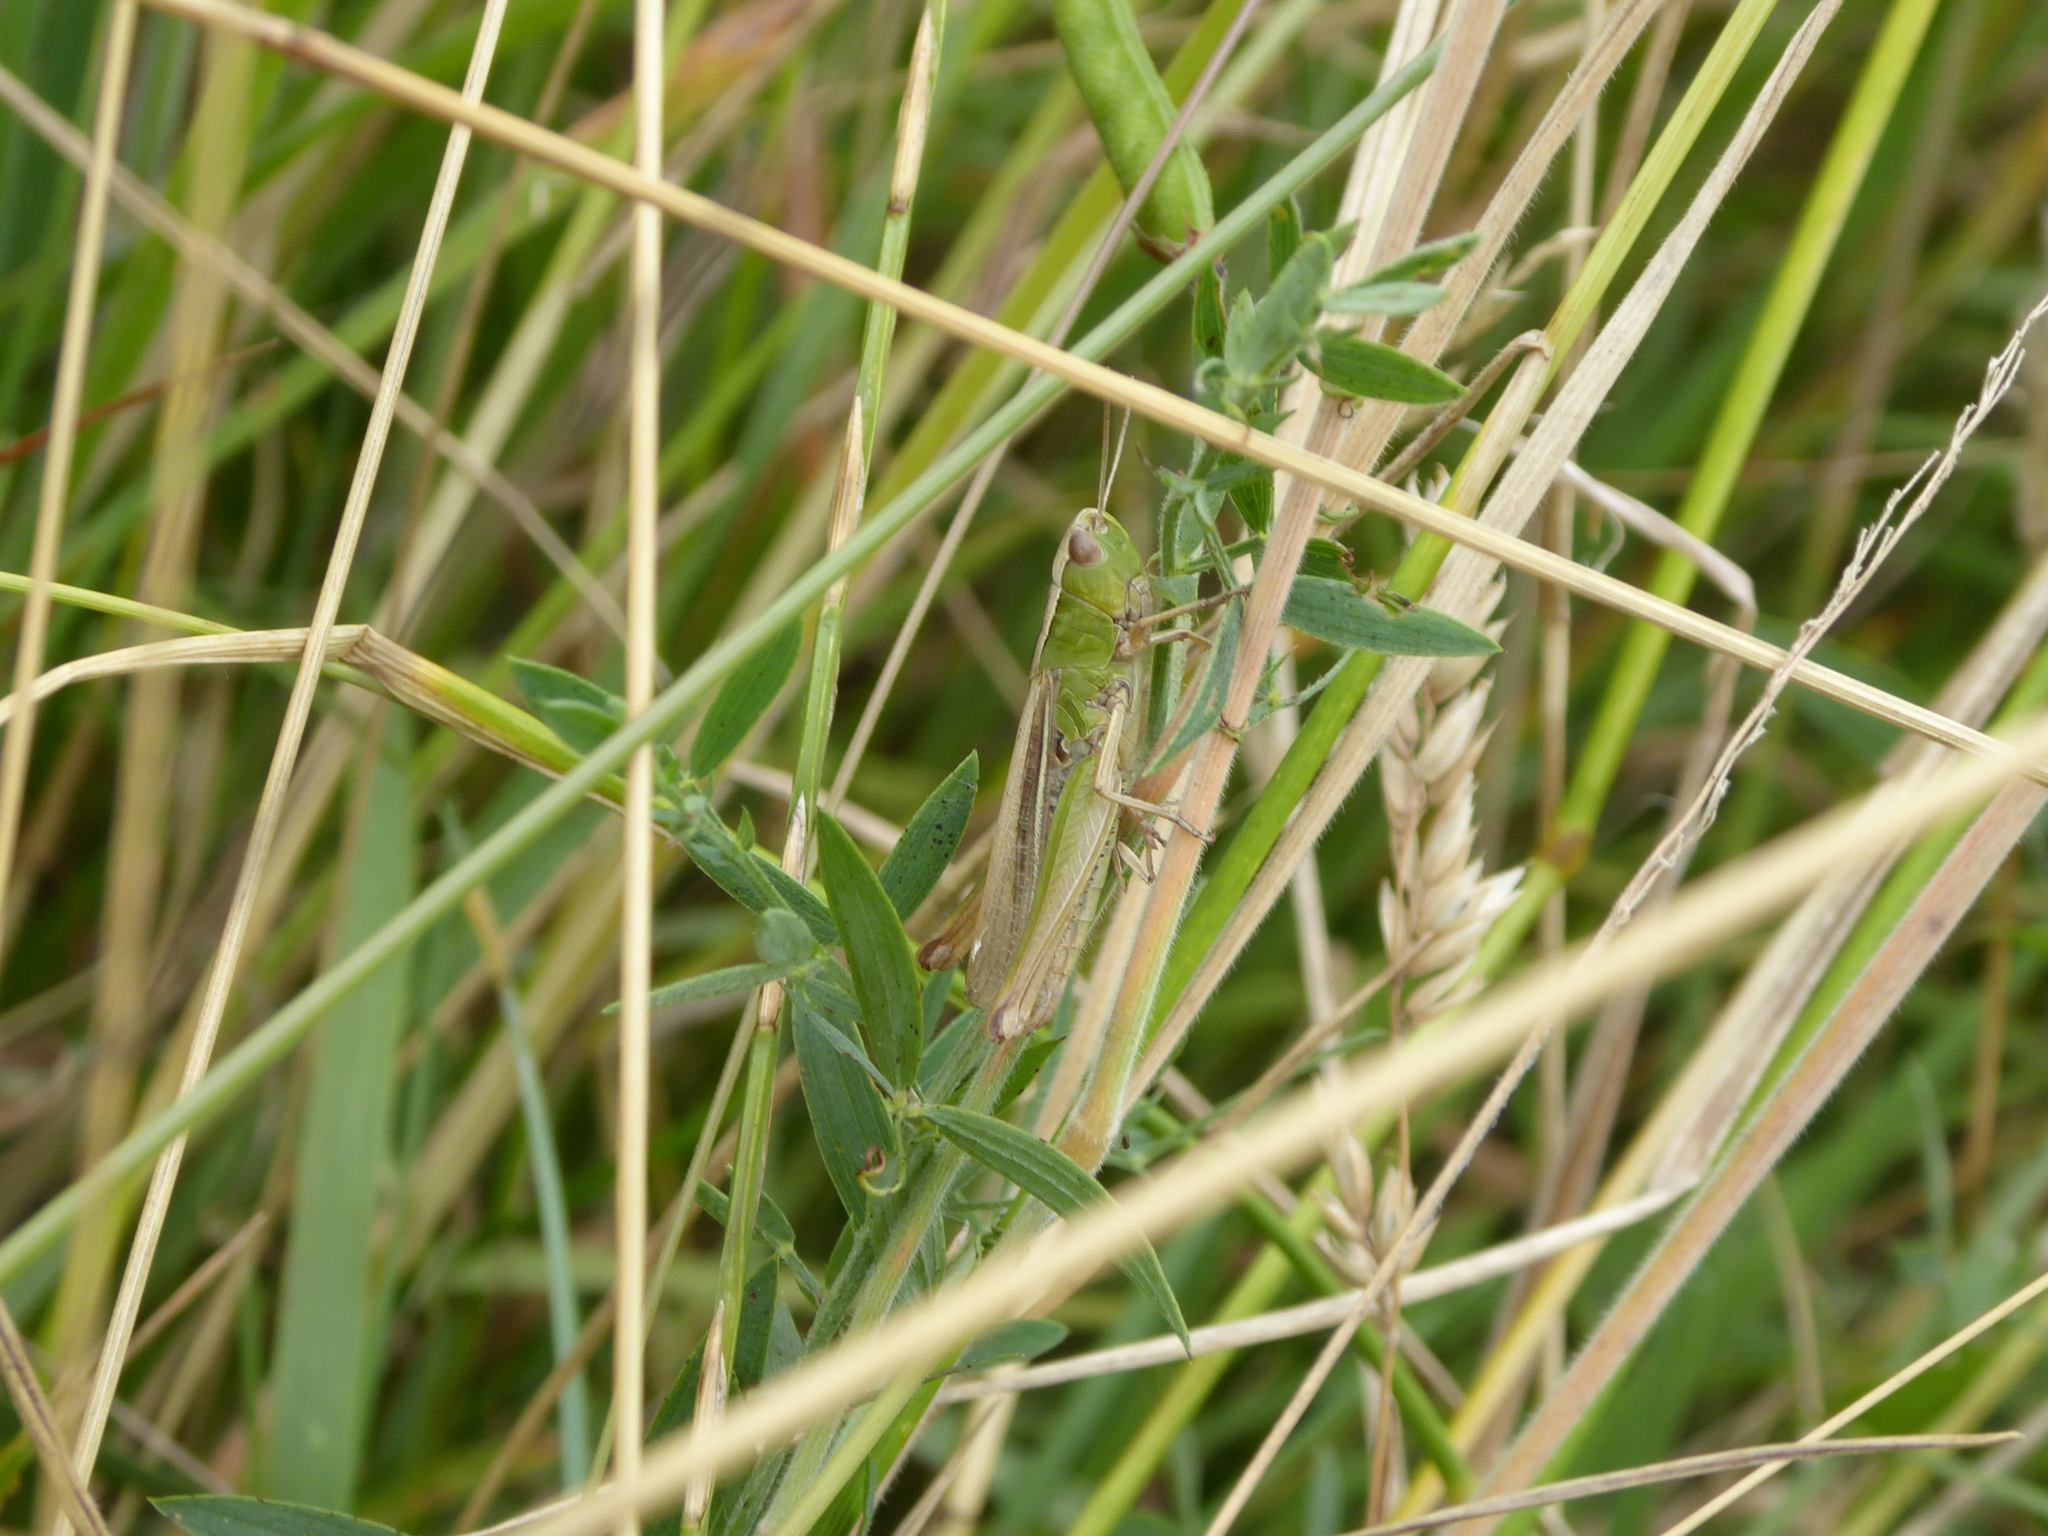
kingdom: Animalia
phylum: Arthropoda
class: Insecta
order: Orthoptera
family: Acrididae
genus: Chorthippus
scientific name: Chorthippus albomarginatus
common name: Lesser marsh grasshopper
